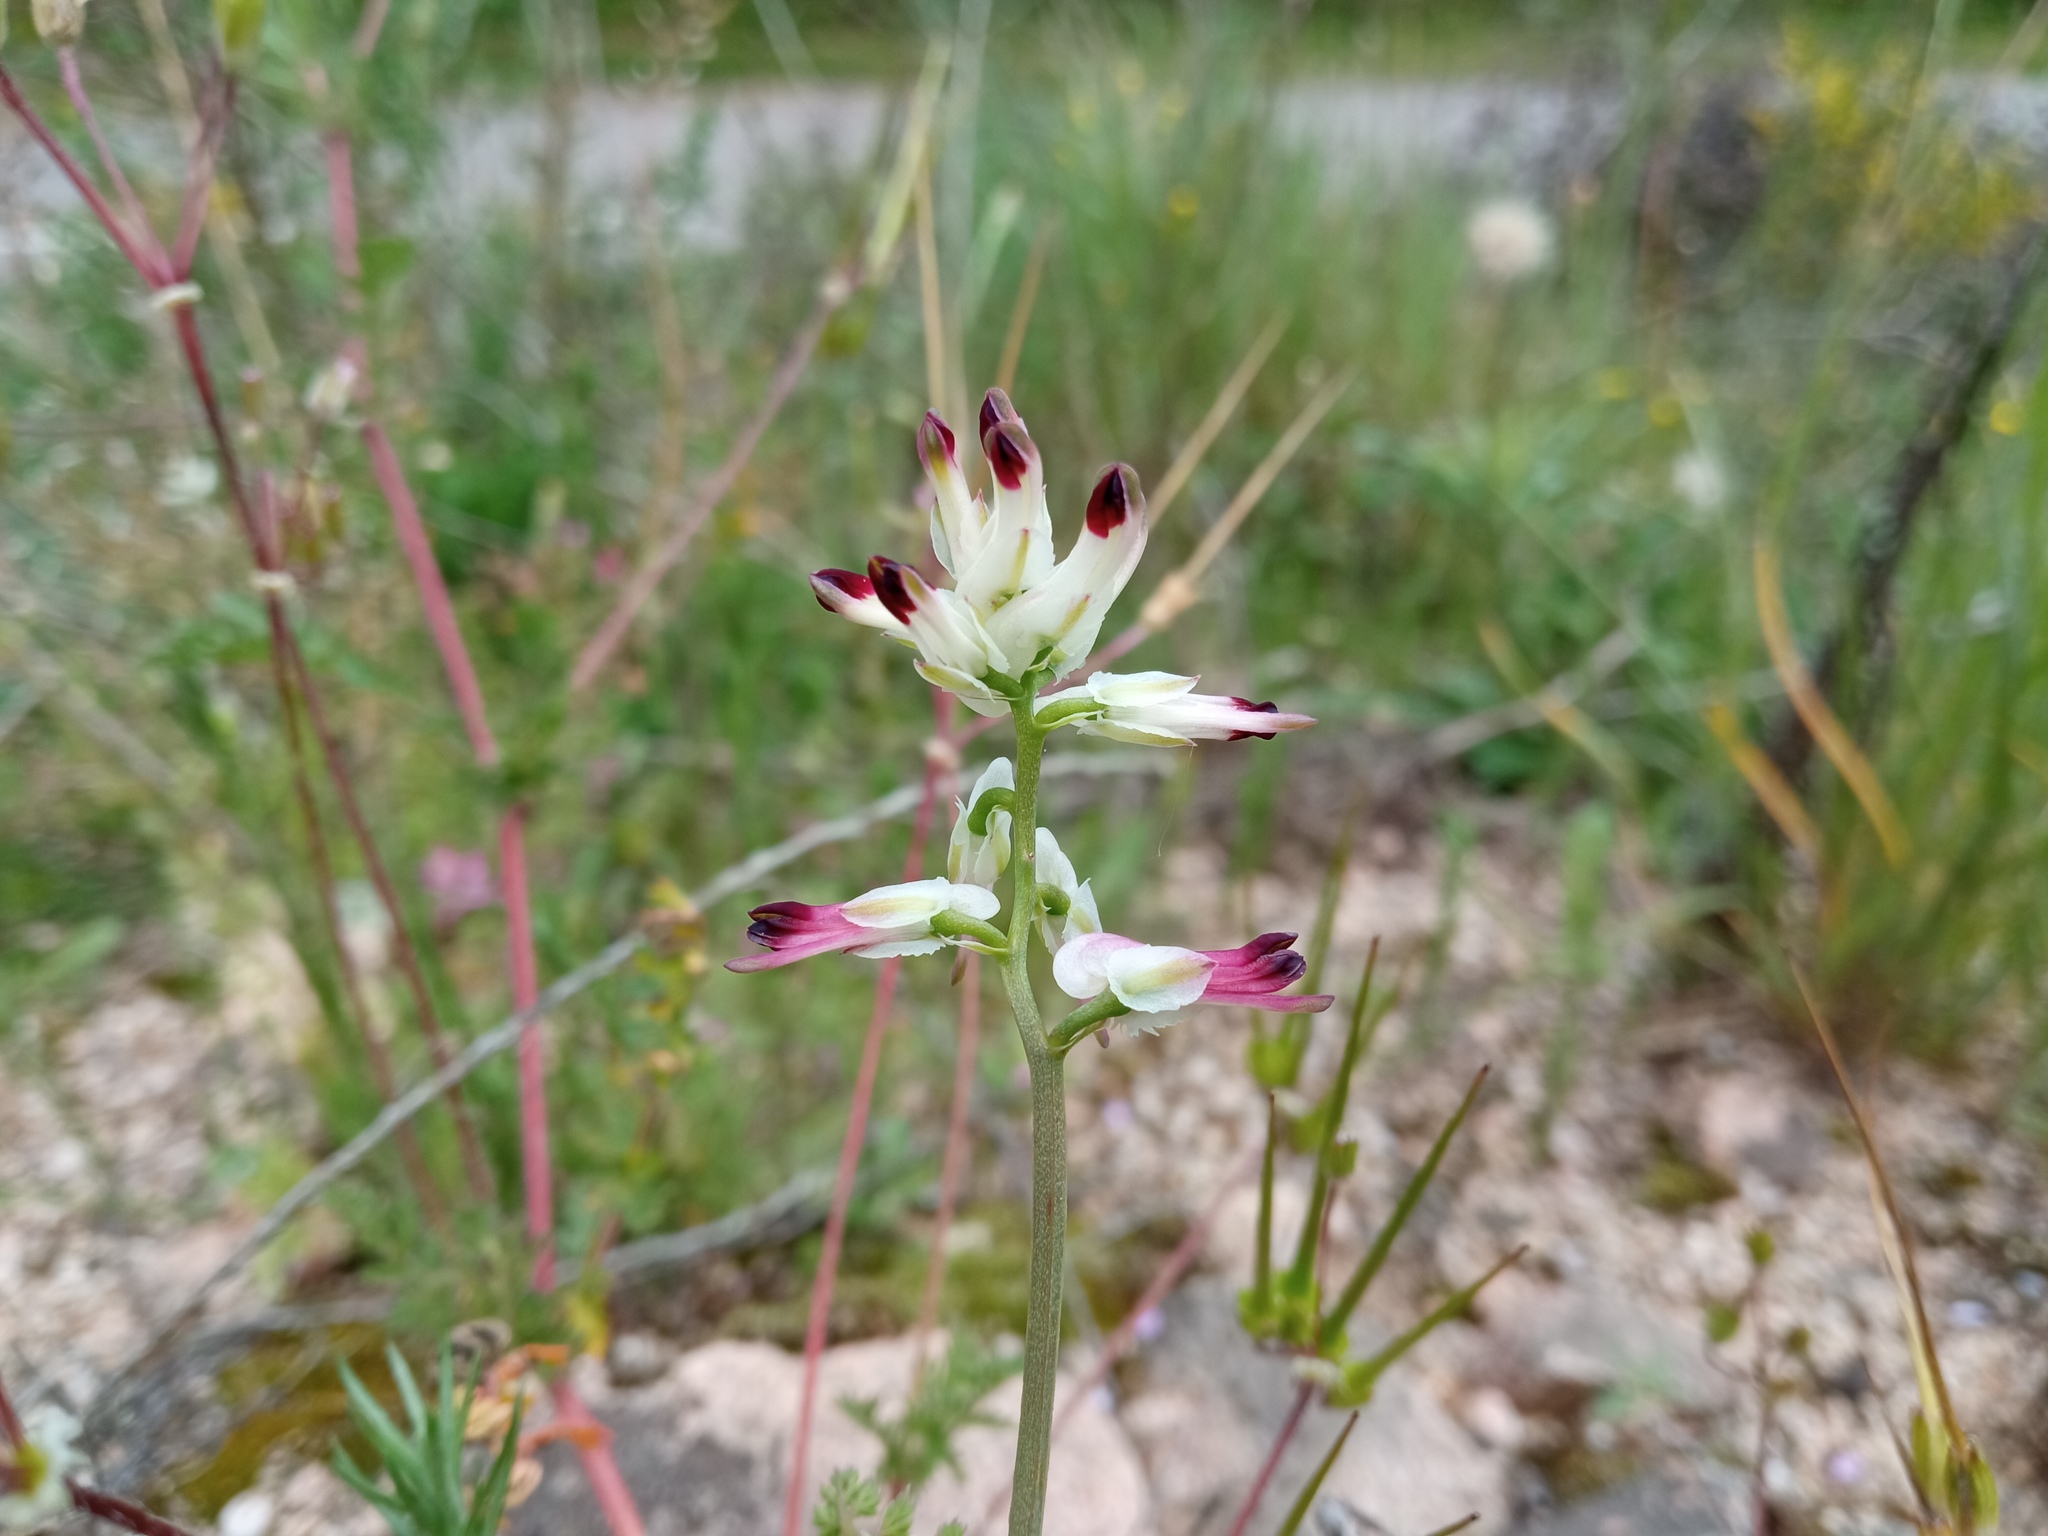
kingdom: Plantae
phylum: Tracheophyta
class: Magnoliopsida
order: Ranunculales
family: Papaveraceae
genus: Fumaria
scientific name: Fumaria capreolata
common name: White ramping-fumitory
